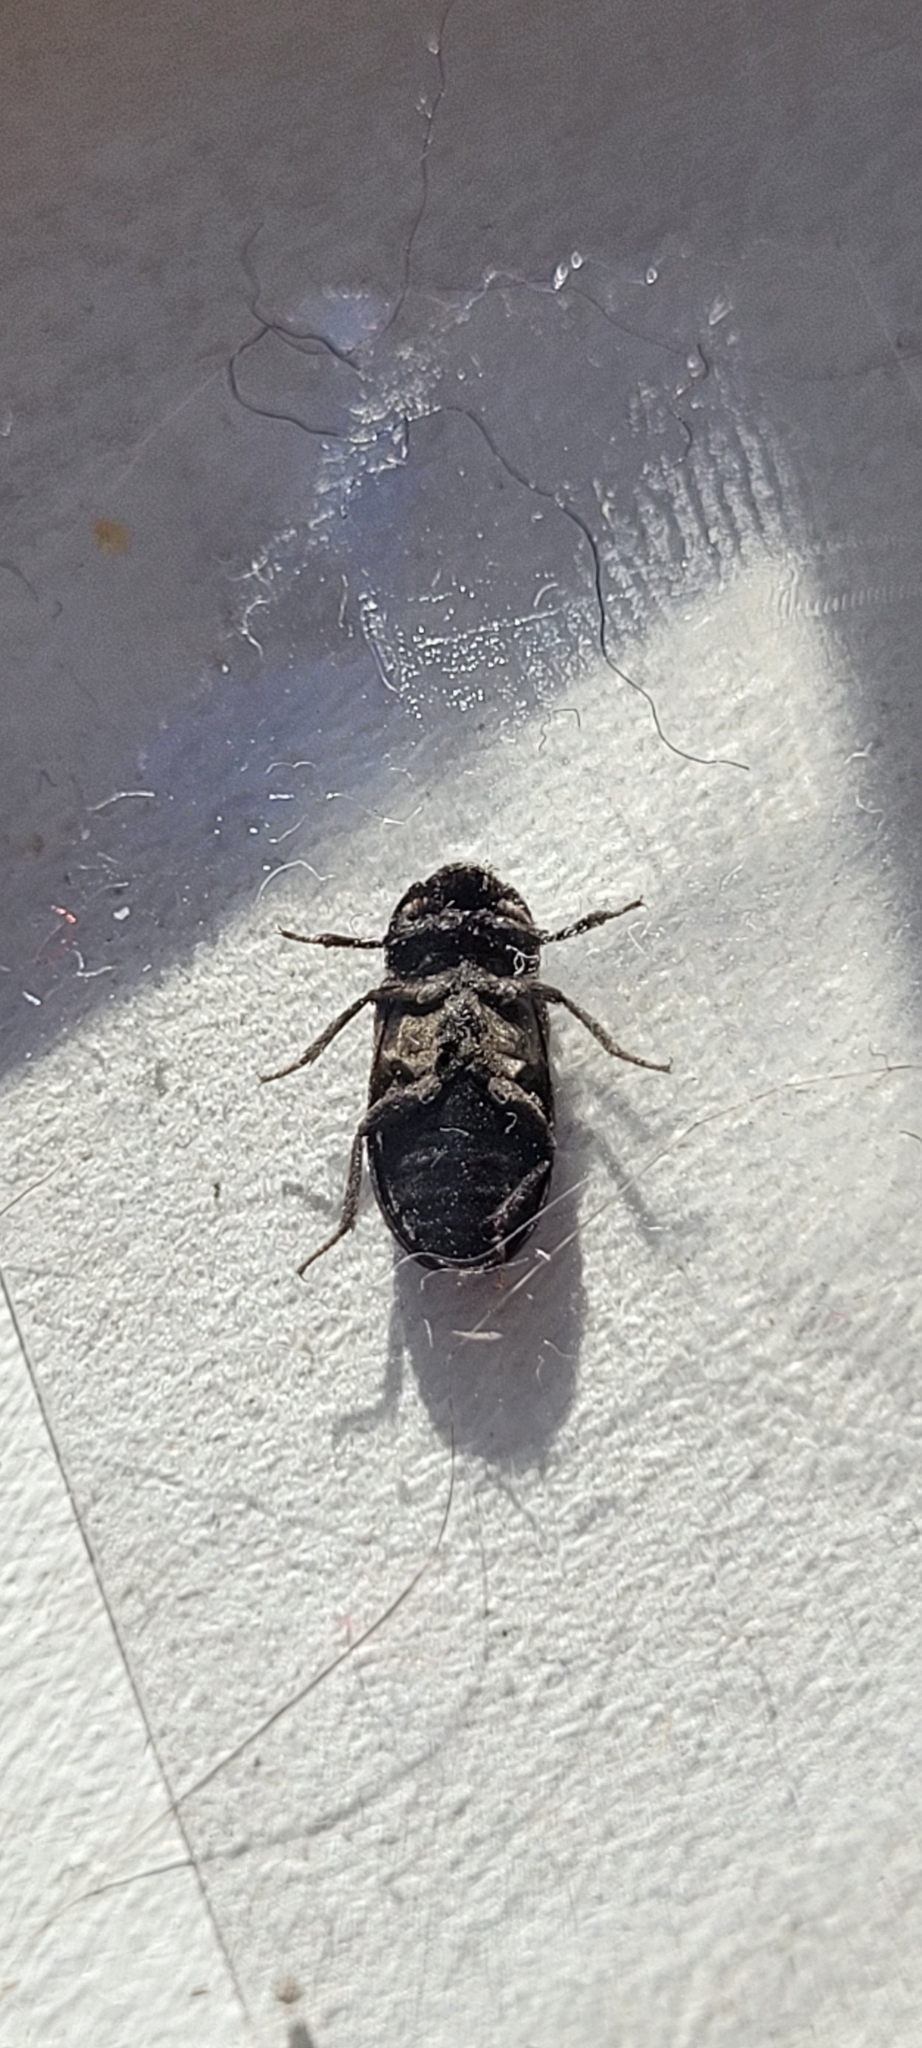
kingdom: Animalia
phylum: Arthropoda
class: Insecta
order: Coleoptera
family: Dermestidae
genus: Dermestes
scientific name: Dermestes lardarius
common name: Larder beetle
